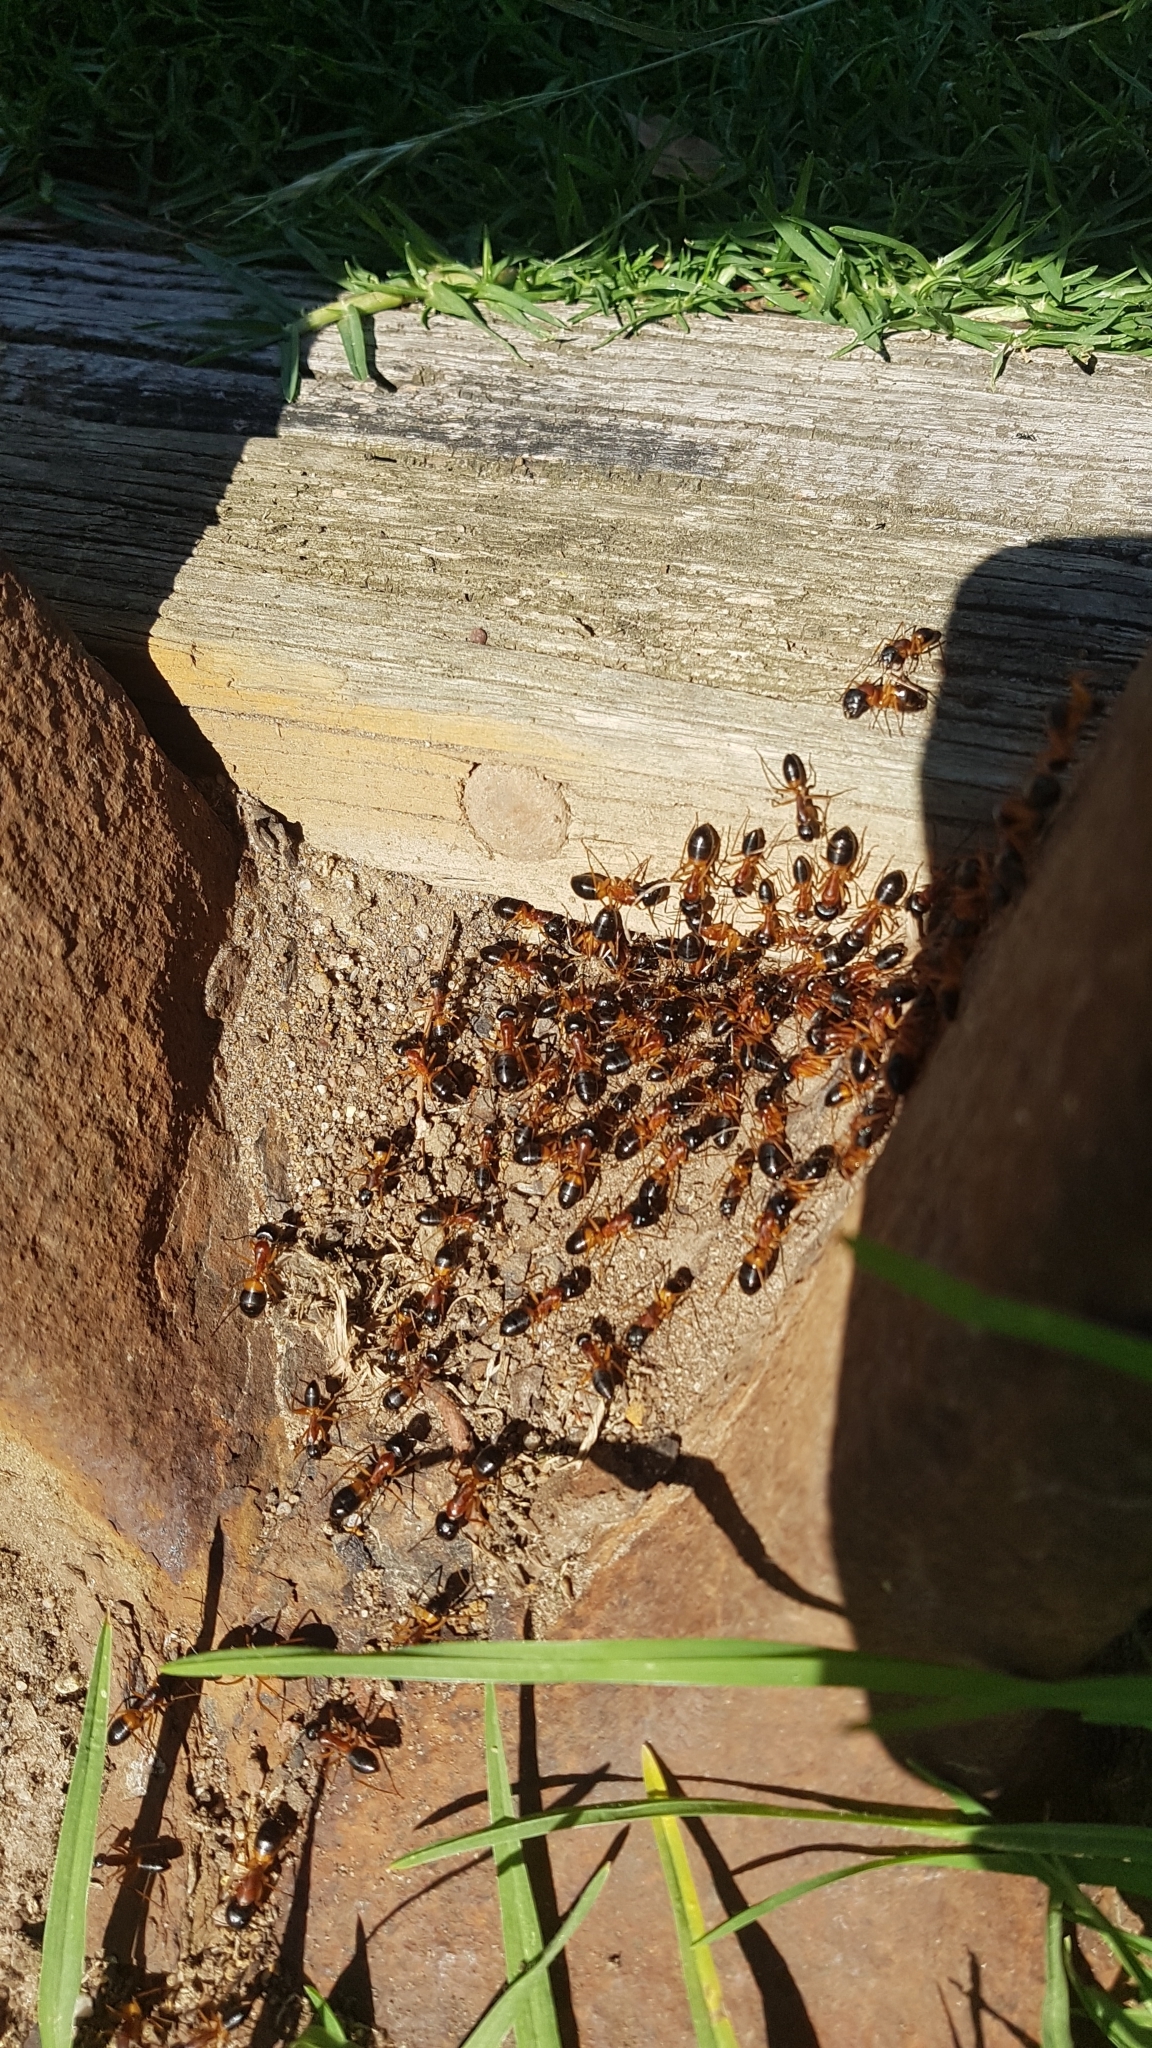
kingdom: Animalia
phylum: Arthropoda
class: Insecta
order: Hymenoptera
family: Formicidae
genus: Camponotus
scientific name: Camponotus consobrinus
